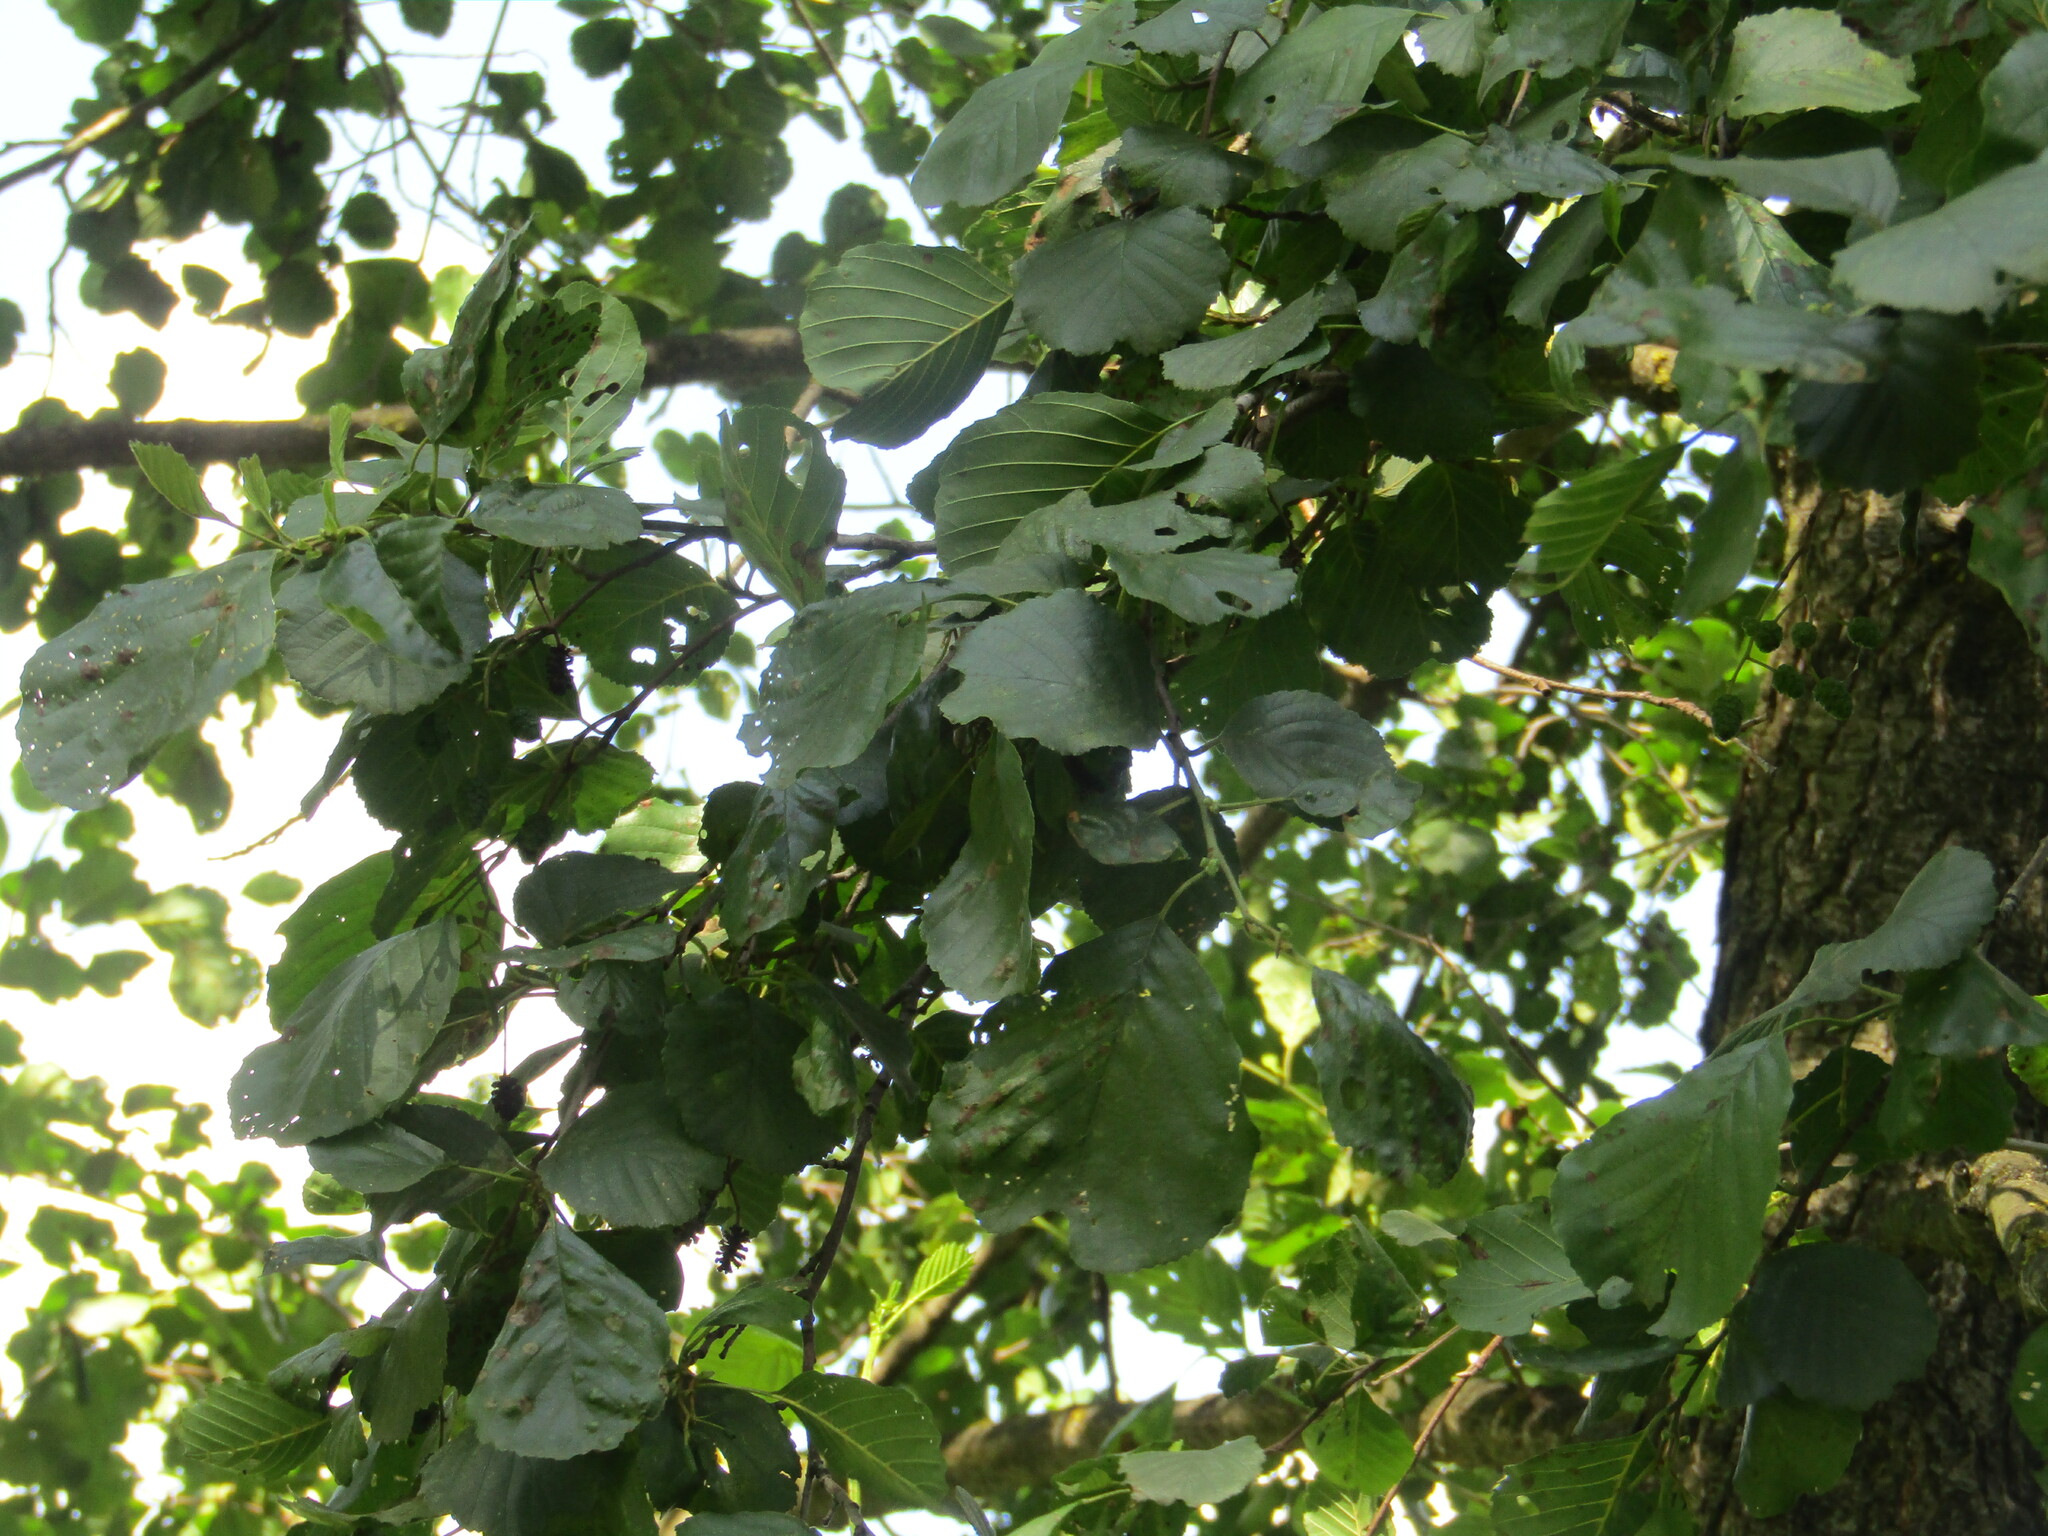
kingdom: Plantae
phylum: Tracheophyta
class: Magnoliopsida
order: Fagales
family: Betulaceae
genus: Alnus
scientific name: Alnus glutinosa
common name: Black alder
